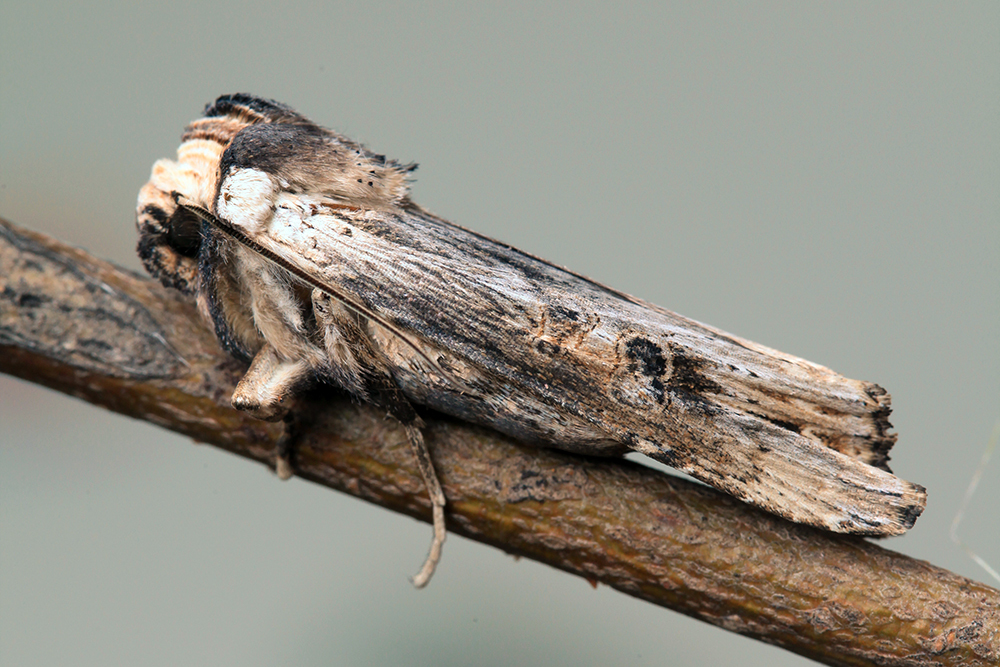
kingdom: Animalia
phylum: Arthropoda
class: Insecta
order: Lepidoptera
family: Noctuidae
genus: Xylena
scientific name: Xylena exsoleta
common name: Sword-grass
